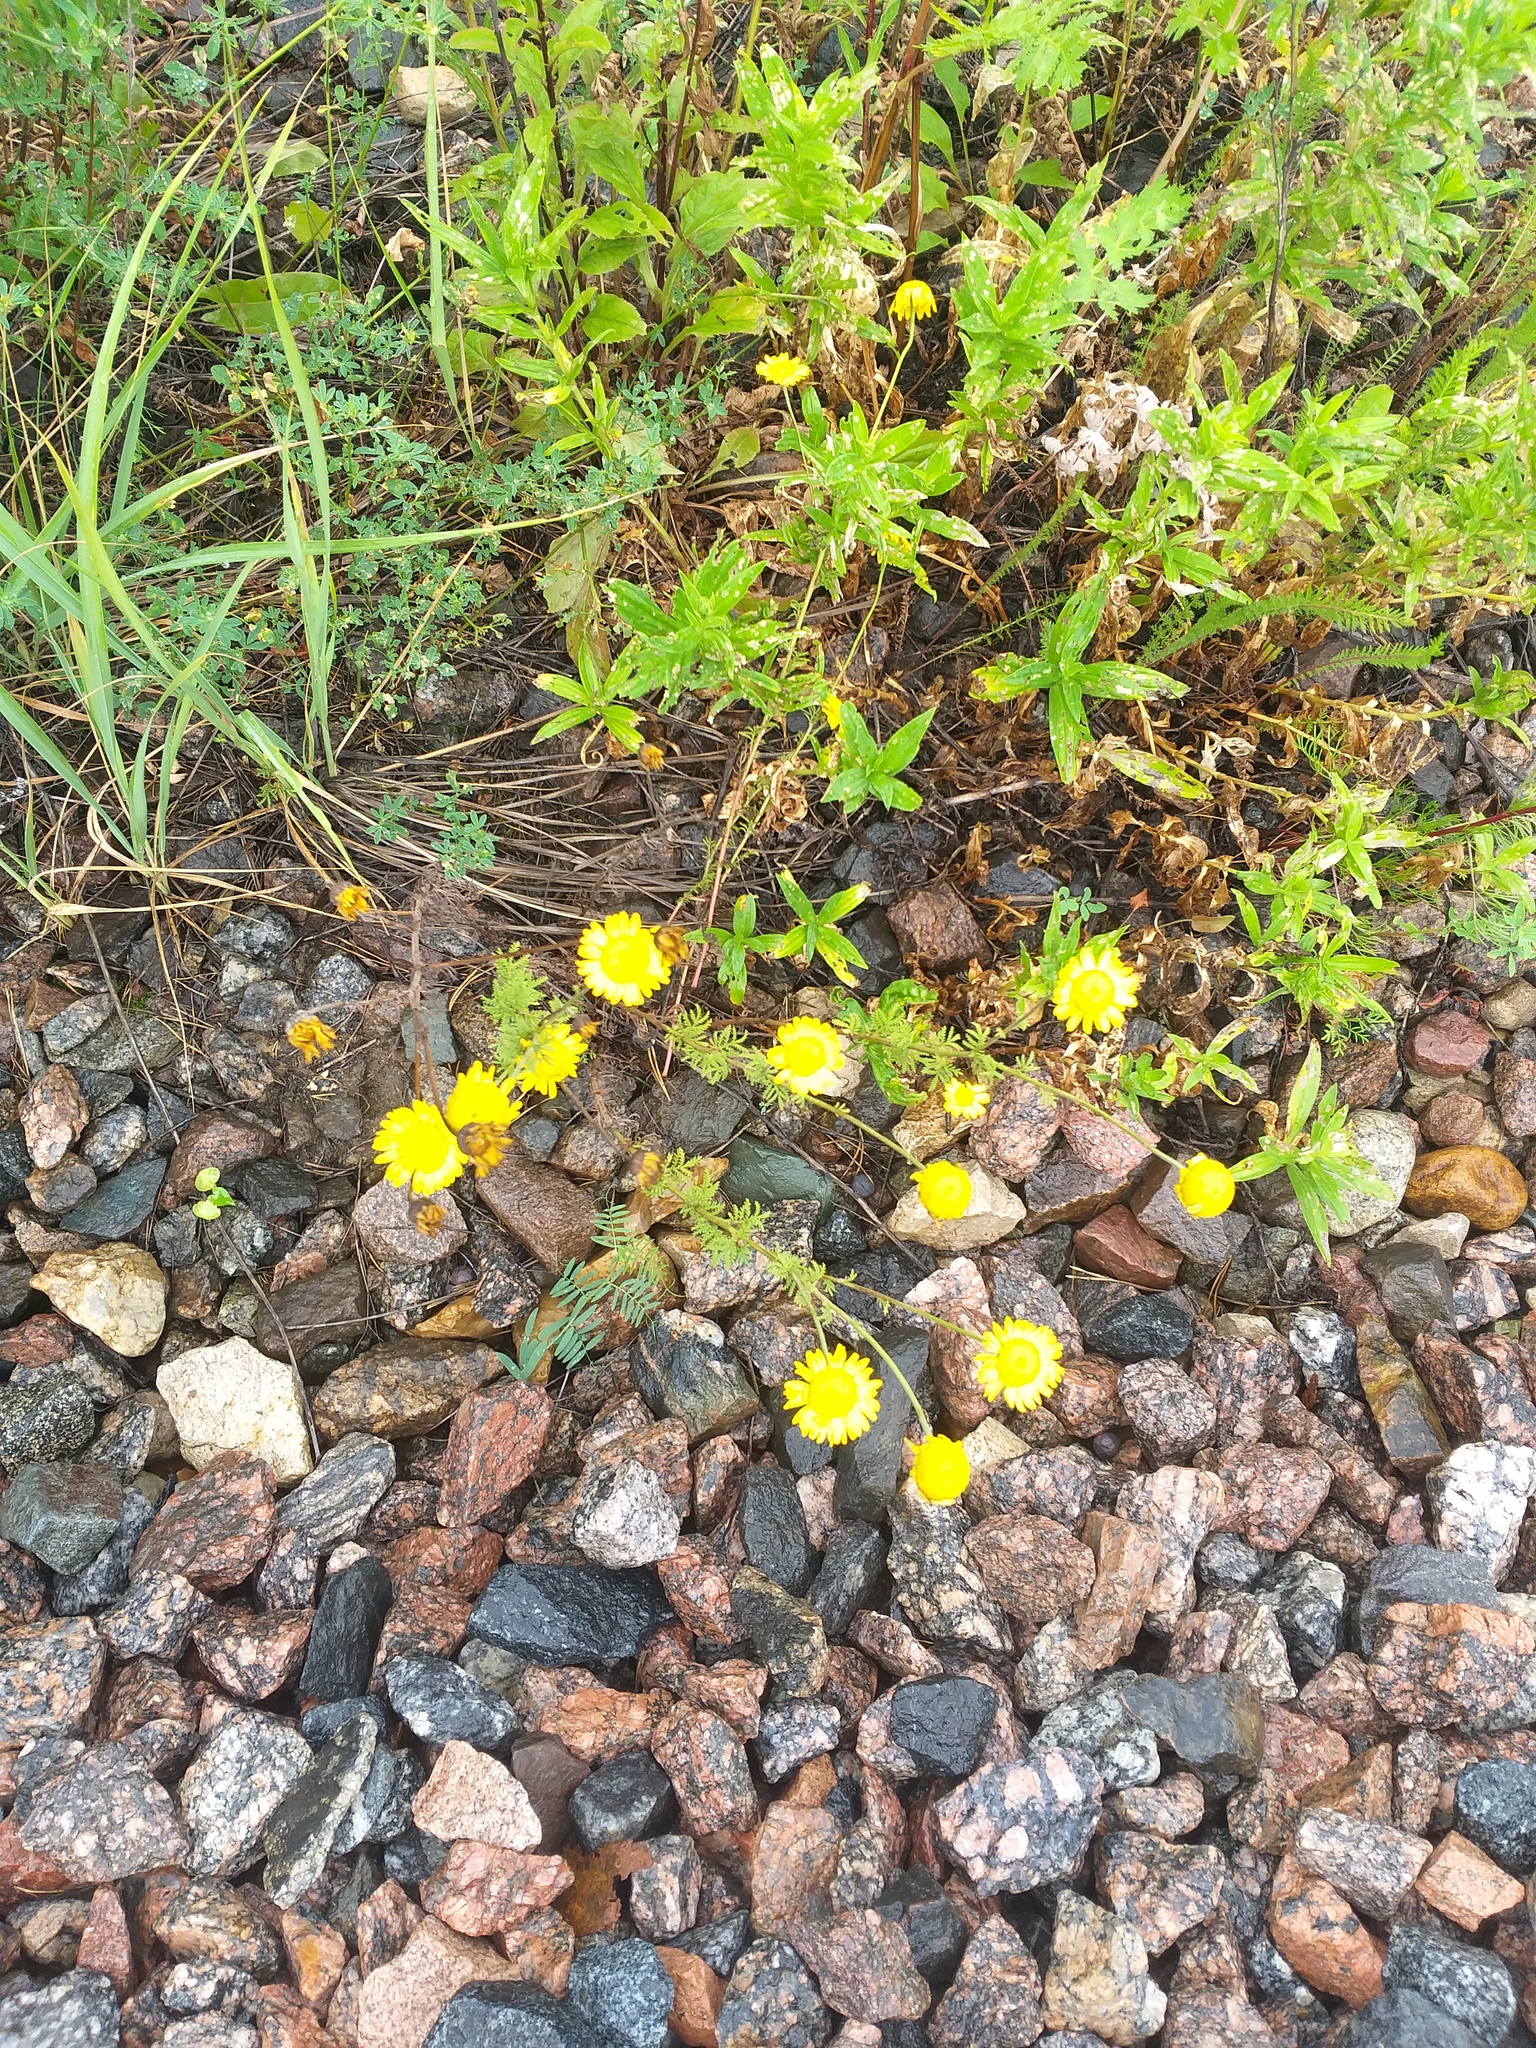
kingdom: Plantae
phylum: Tracheophyta
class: Magnoliopsida
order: Asterales
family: Asteraceae
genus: Cota
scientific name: Cota tinctoria
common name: Golden chamomile
